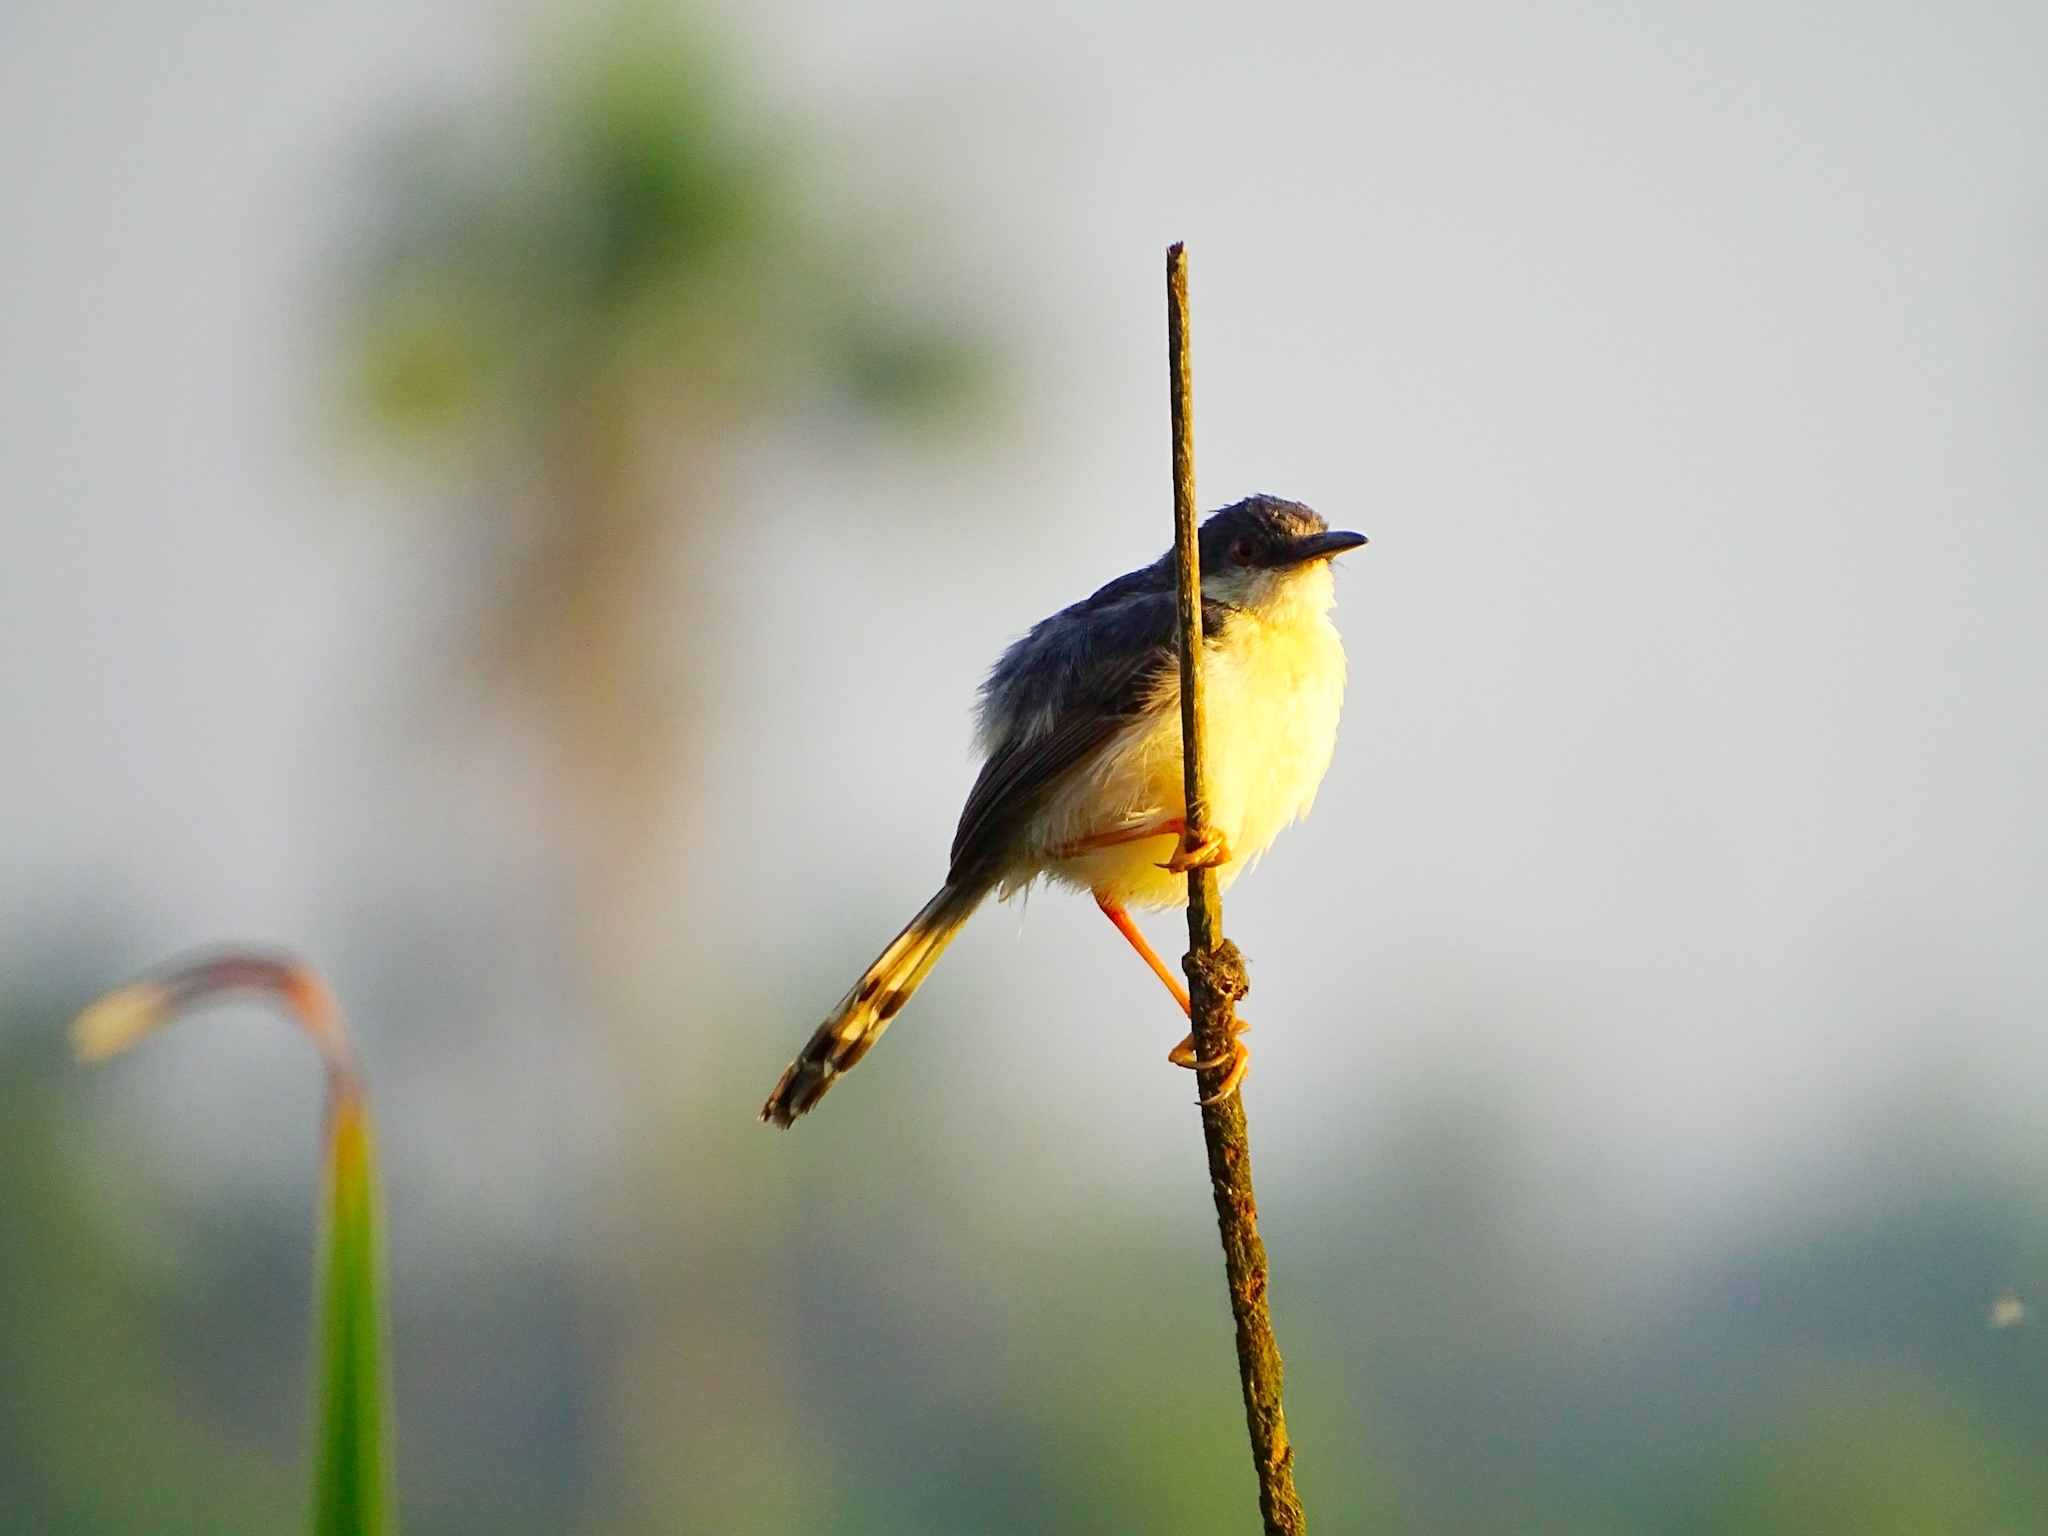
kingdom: Animalia
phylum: Chordata
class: Aves
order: Passeriformes
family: Cisticolidae
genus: Prinia
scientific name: Prinia socialis
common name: Ashy prinia
